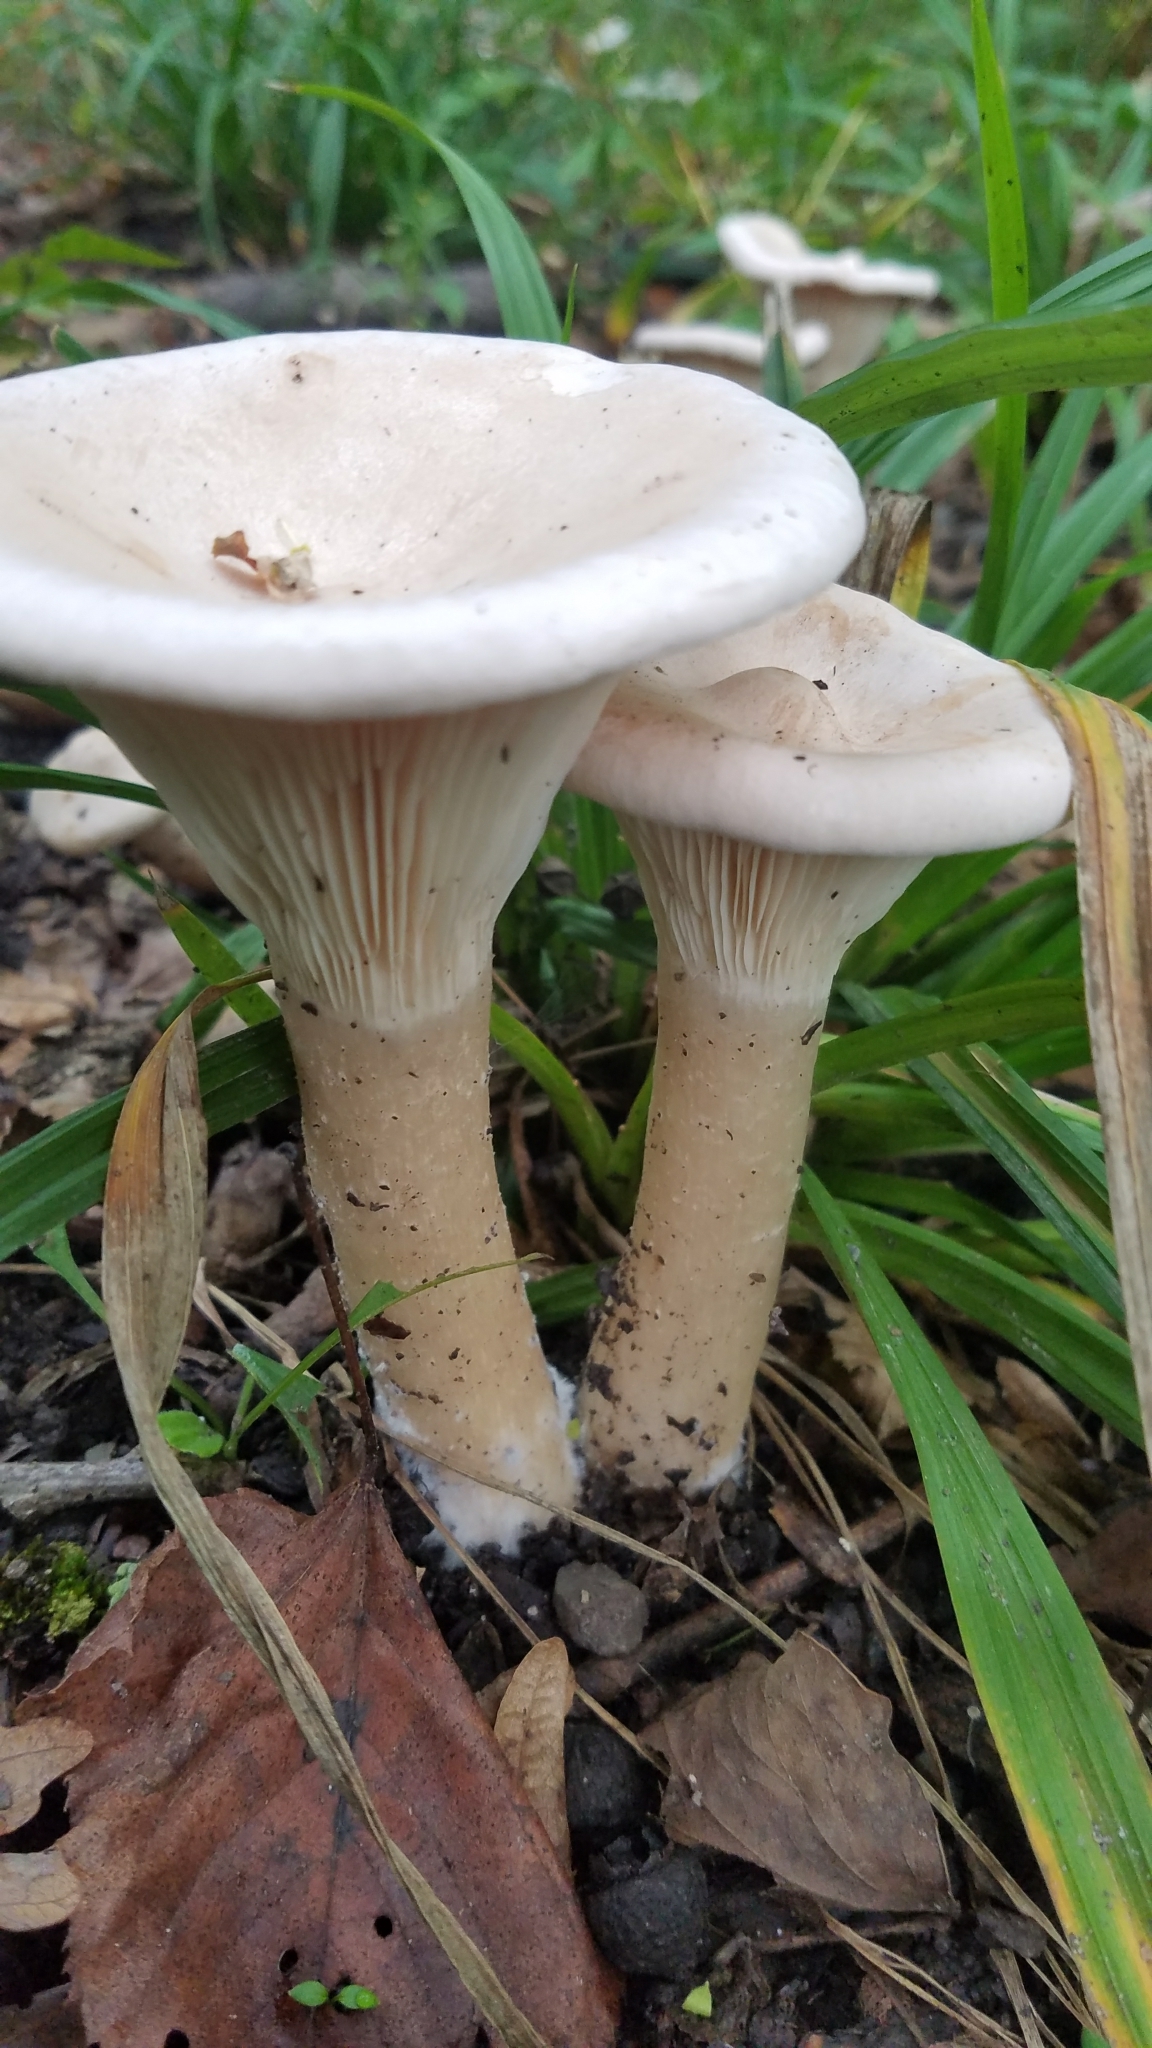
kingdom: Fungi
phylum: Basidiomycota
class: Agaricomycetes
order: Agaricales
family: Tricholomataceae
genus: Infundibulicybe
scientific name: Infundibulicybe geotropa
